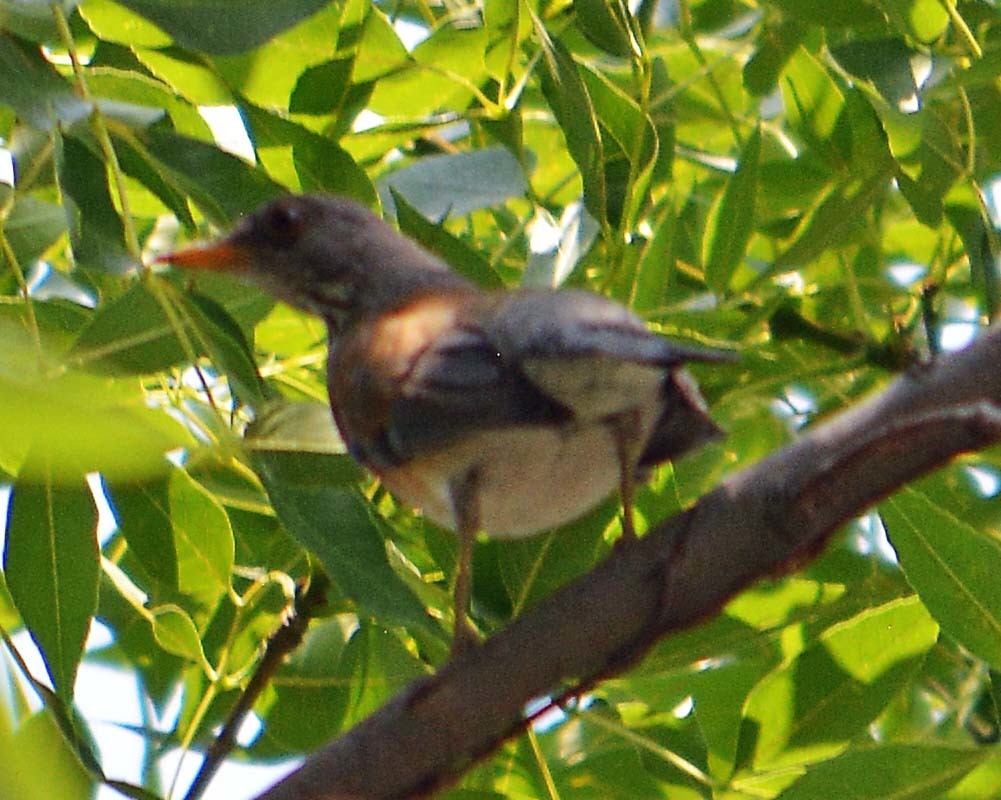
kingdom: Animalia
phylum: Chordata
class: Aves
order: Passeriformes
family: Turdidae
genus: Turdus
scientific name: Turdus rufopalliatus
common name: Rufous-backed robin
